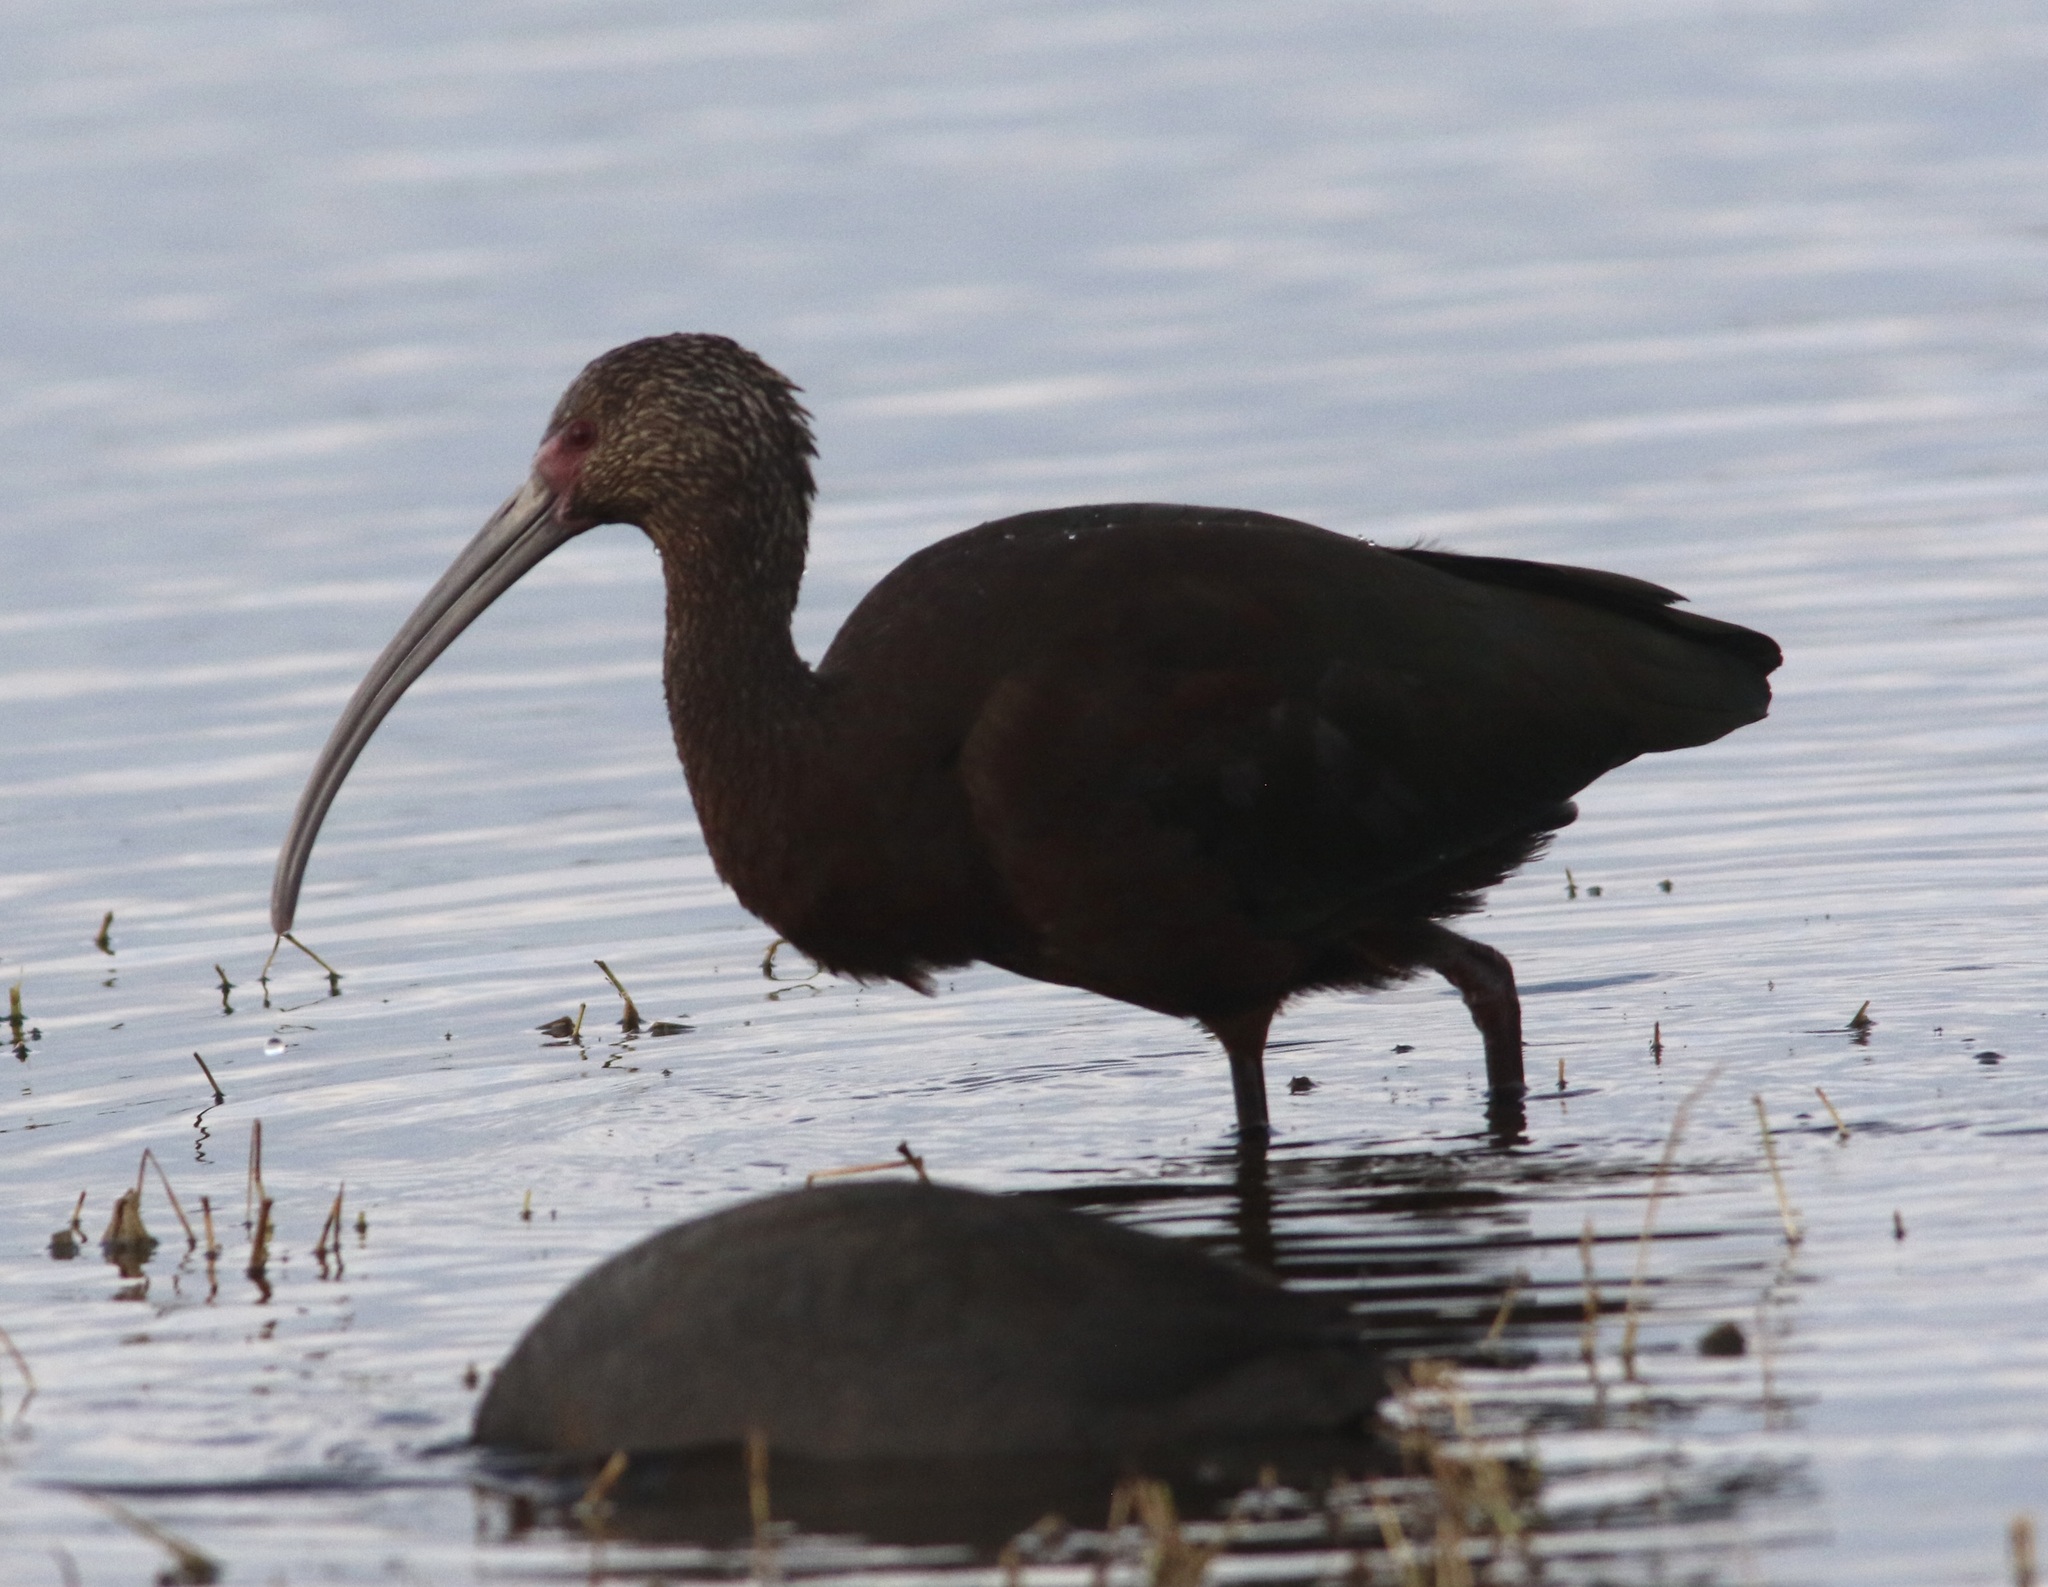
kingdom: Animalia
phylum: Chordata
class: Aves
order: Pelecaniformes
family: Threskiornithidae
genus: Plegadis
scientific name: Plegadis chihi
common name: White-faced ibis
